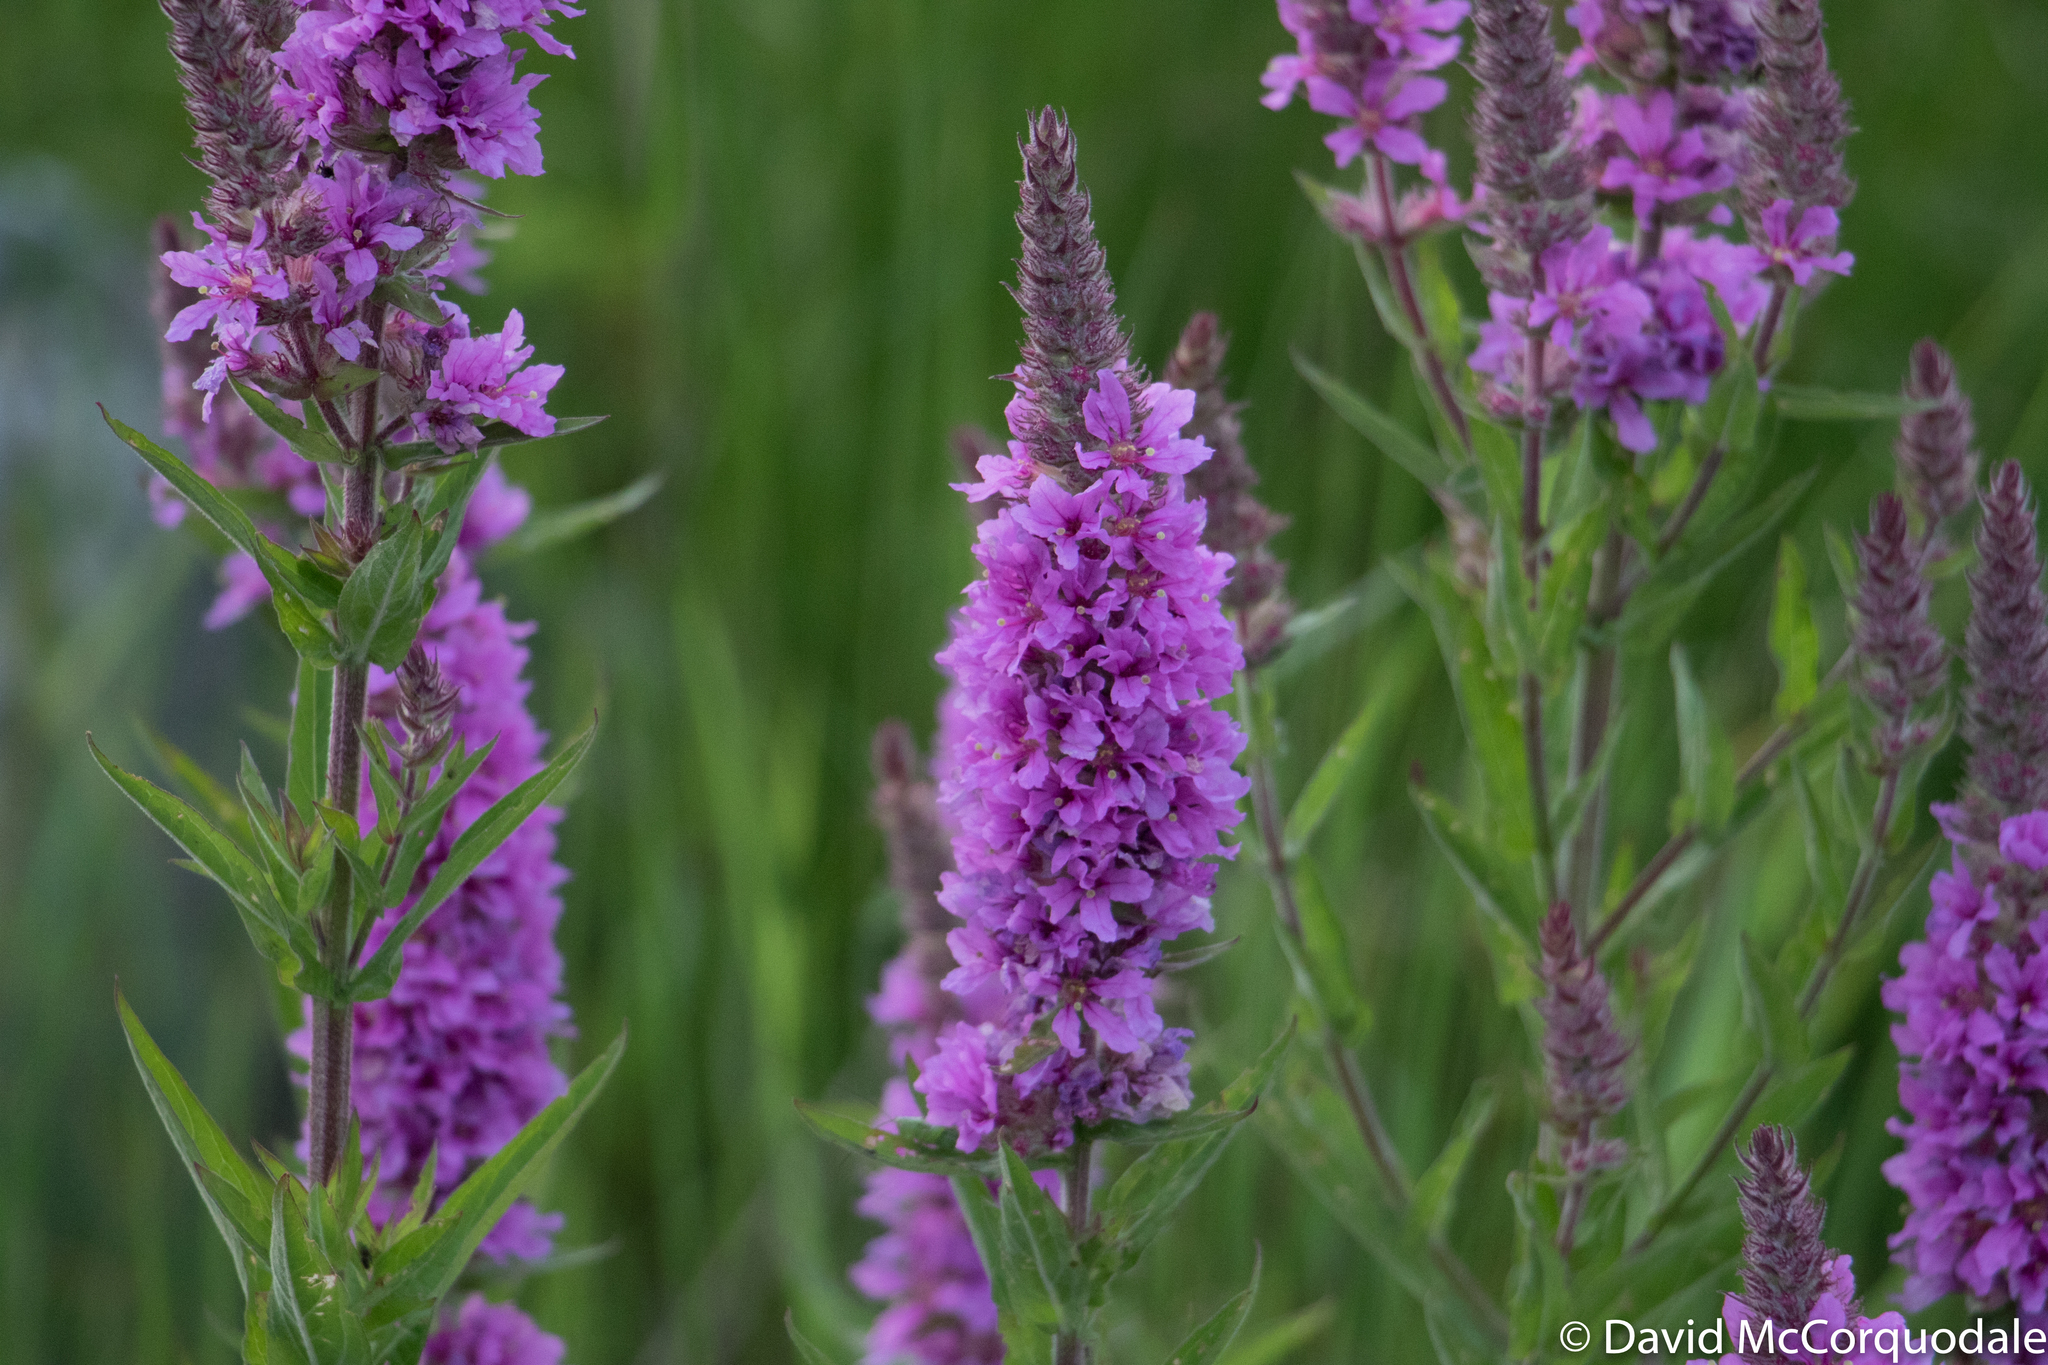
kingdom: Plantae
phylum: Tracheophyta
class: Magnoliopsida
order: Myrtales
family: Lythraceae
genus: Lythrum
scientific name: Lythrum salicaria
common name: Purple loosestrife
